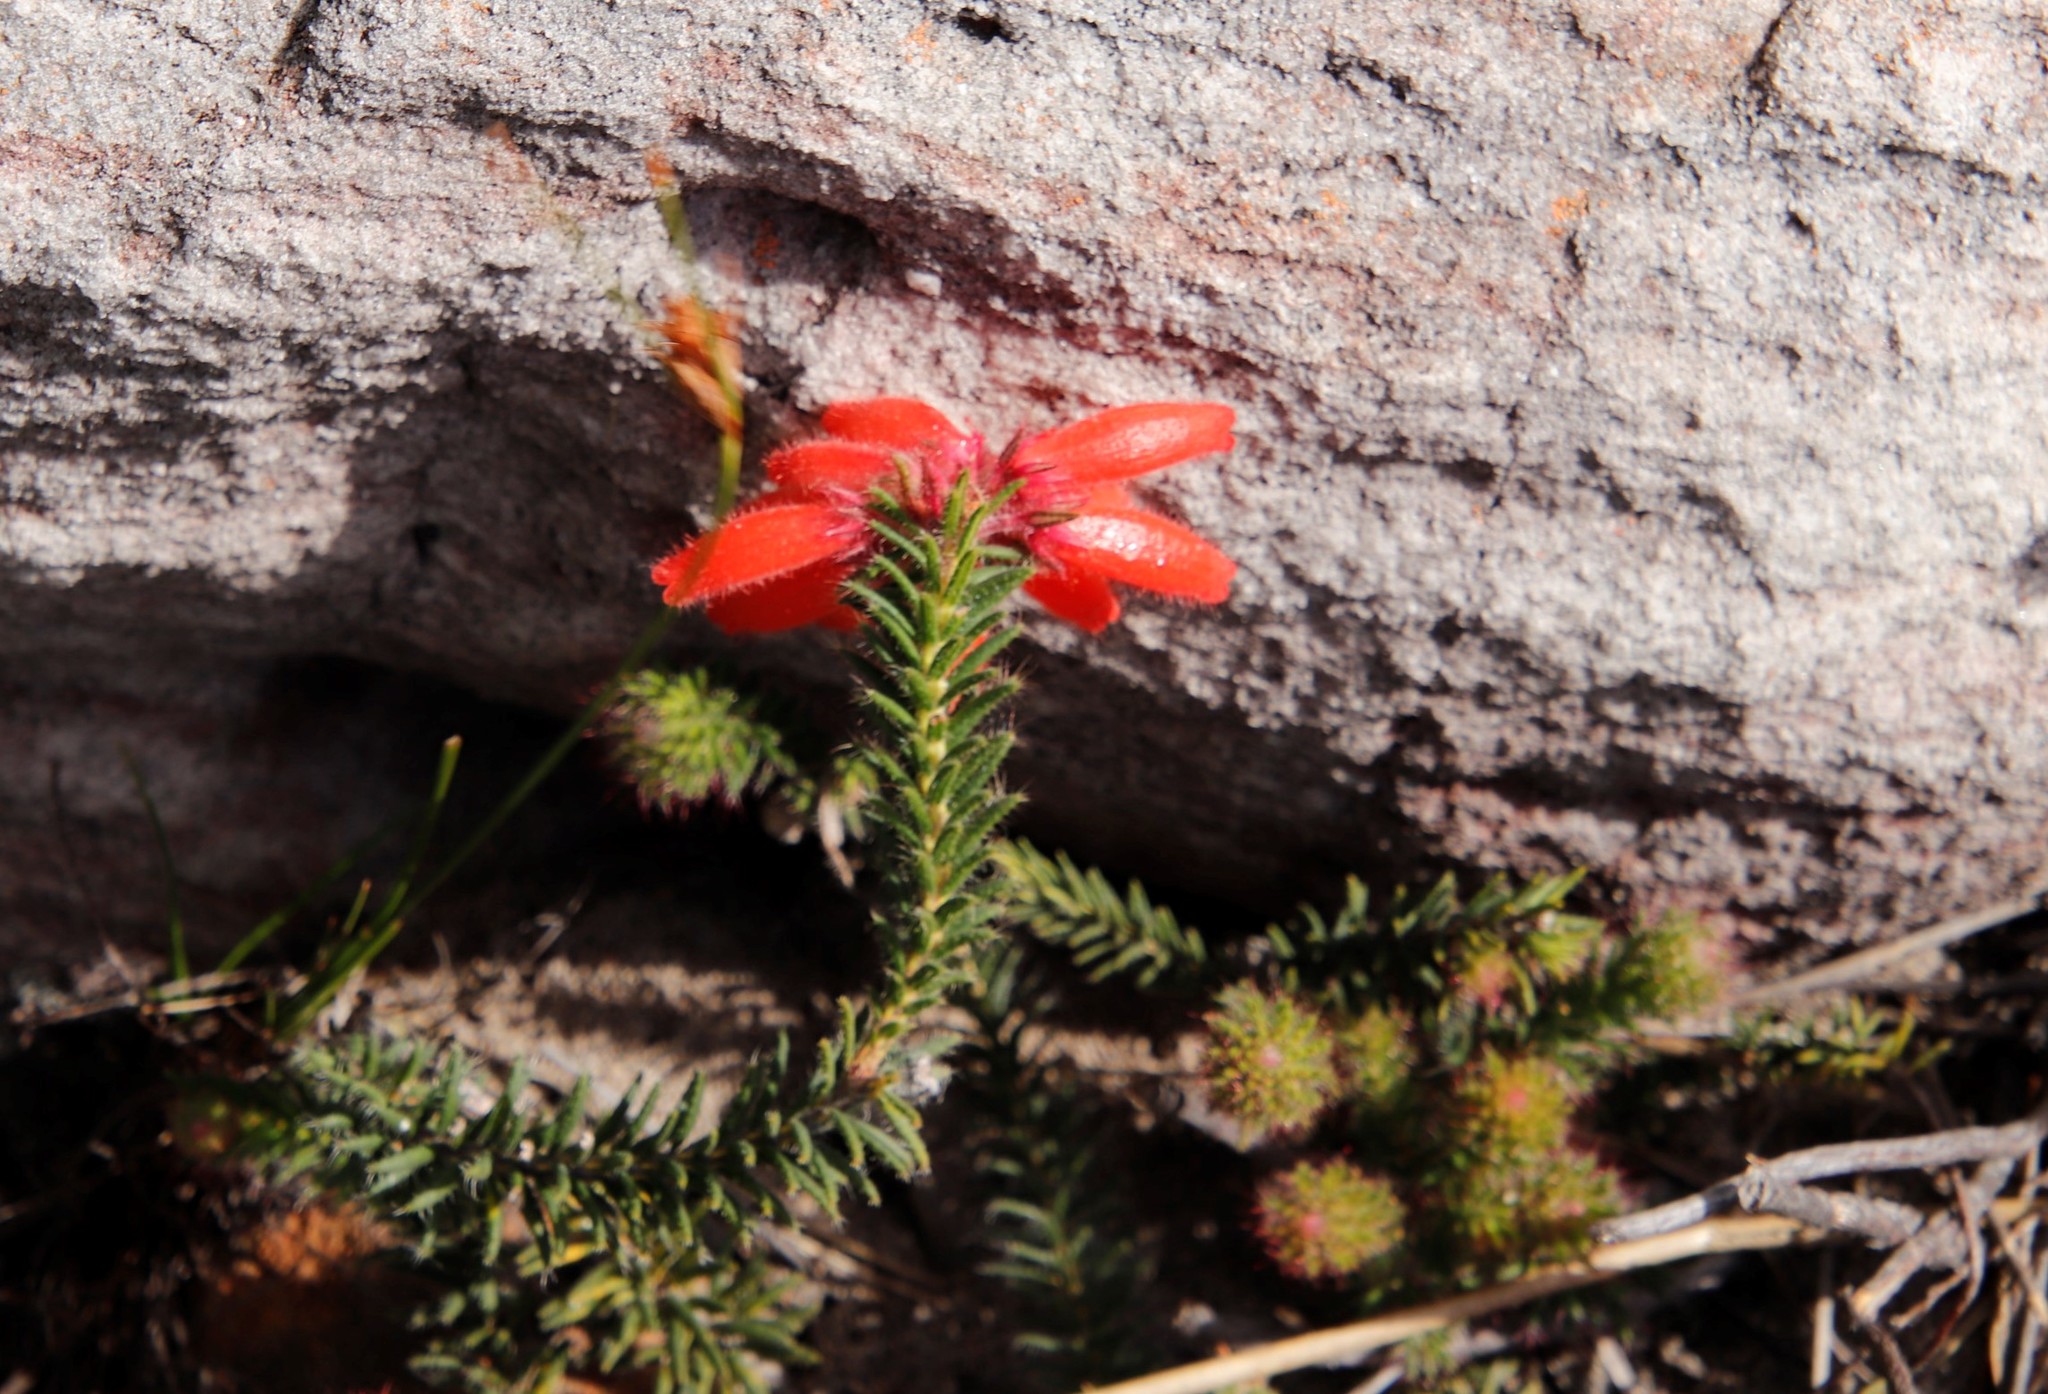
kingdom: Plantae
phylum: Tracheophyta
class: Magnoliopsida
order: Ericales
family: Ericaceae
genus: Erica
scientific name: Erica cerinthoides
